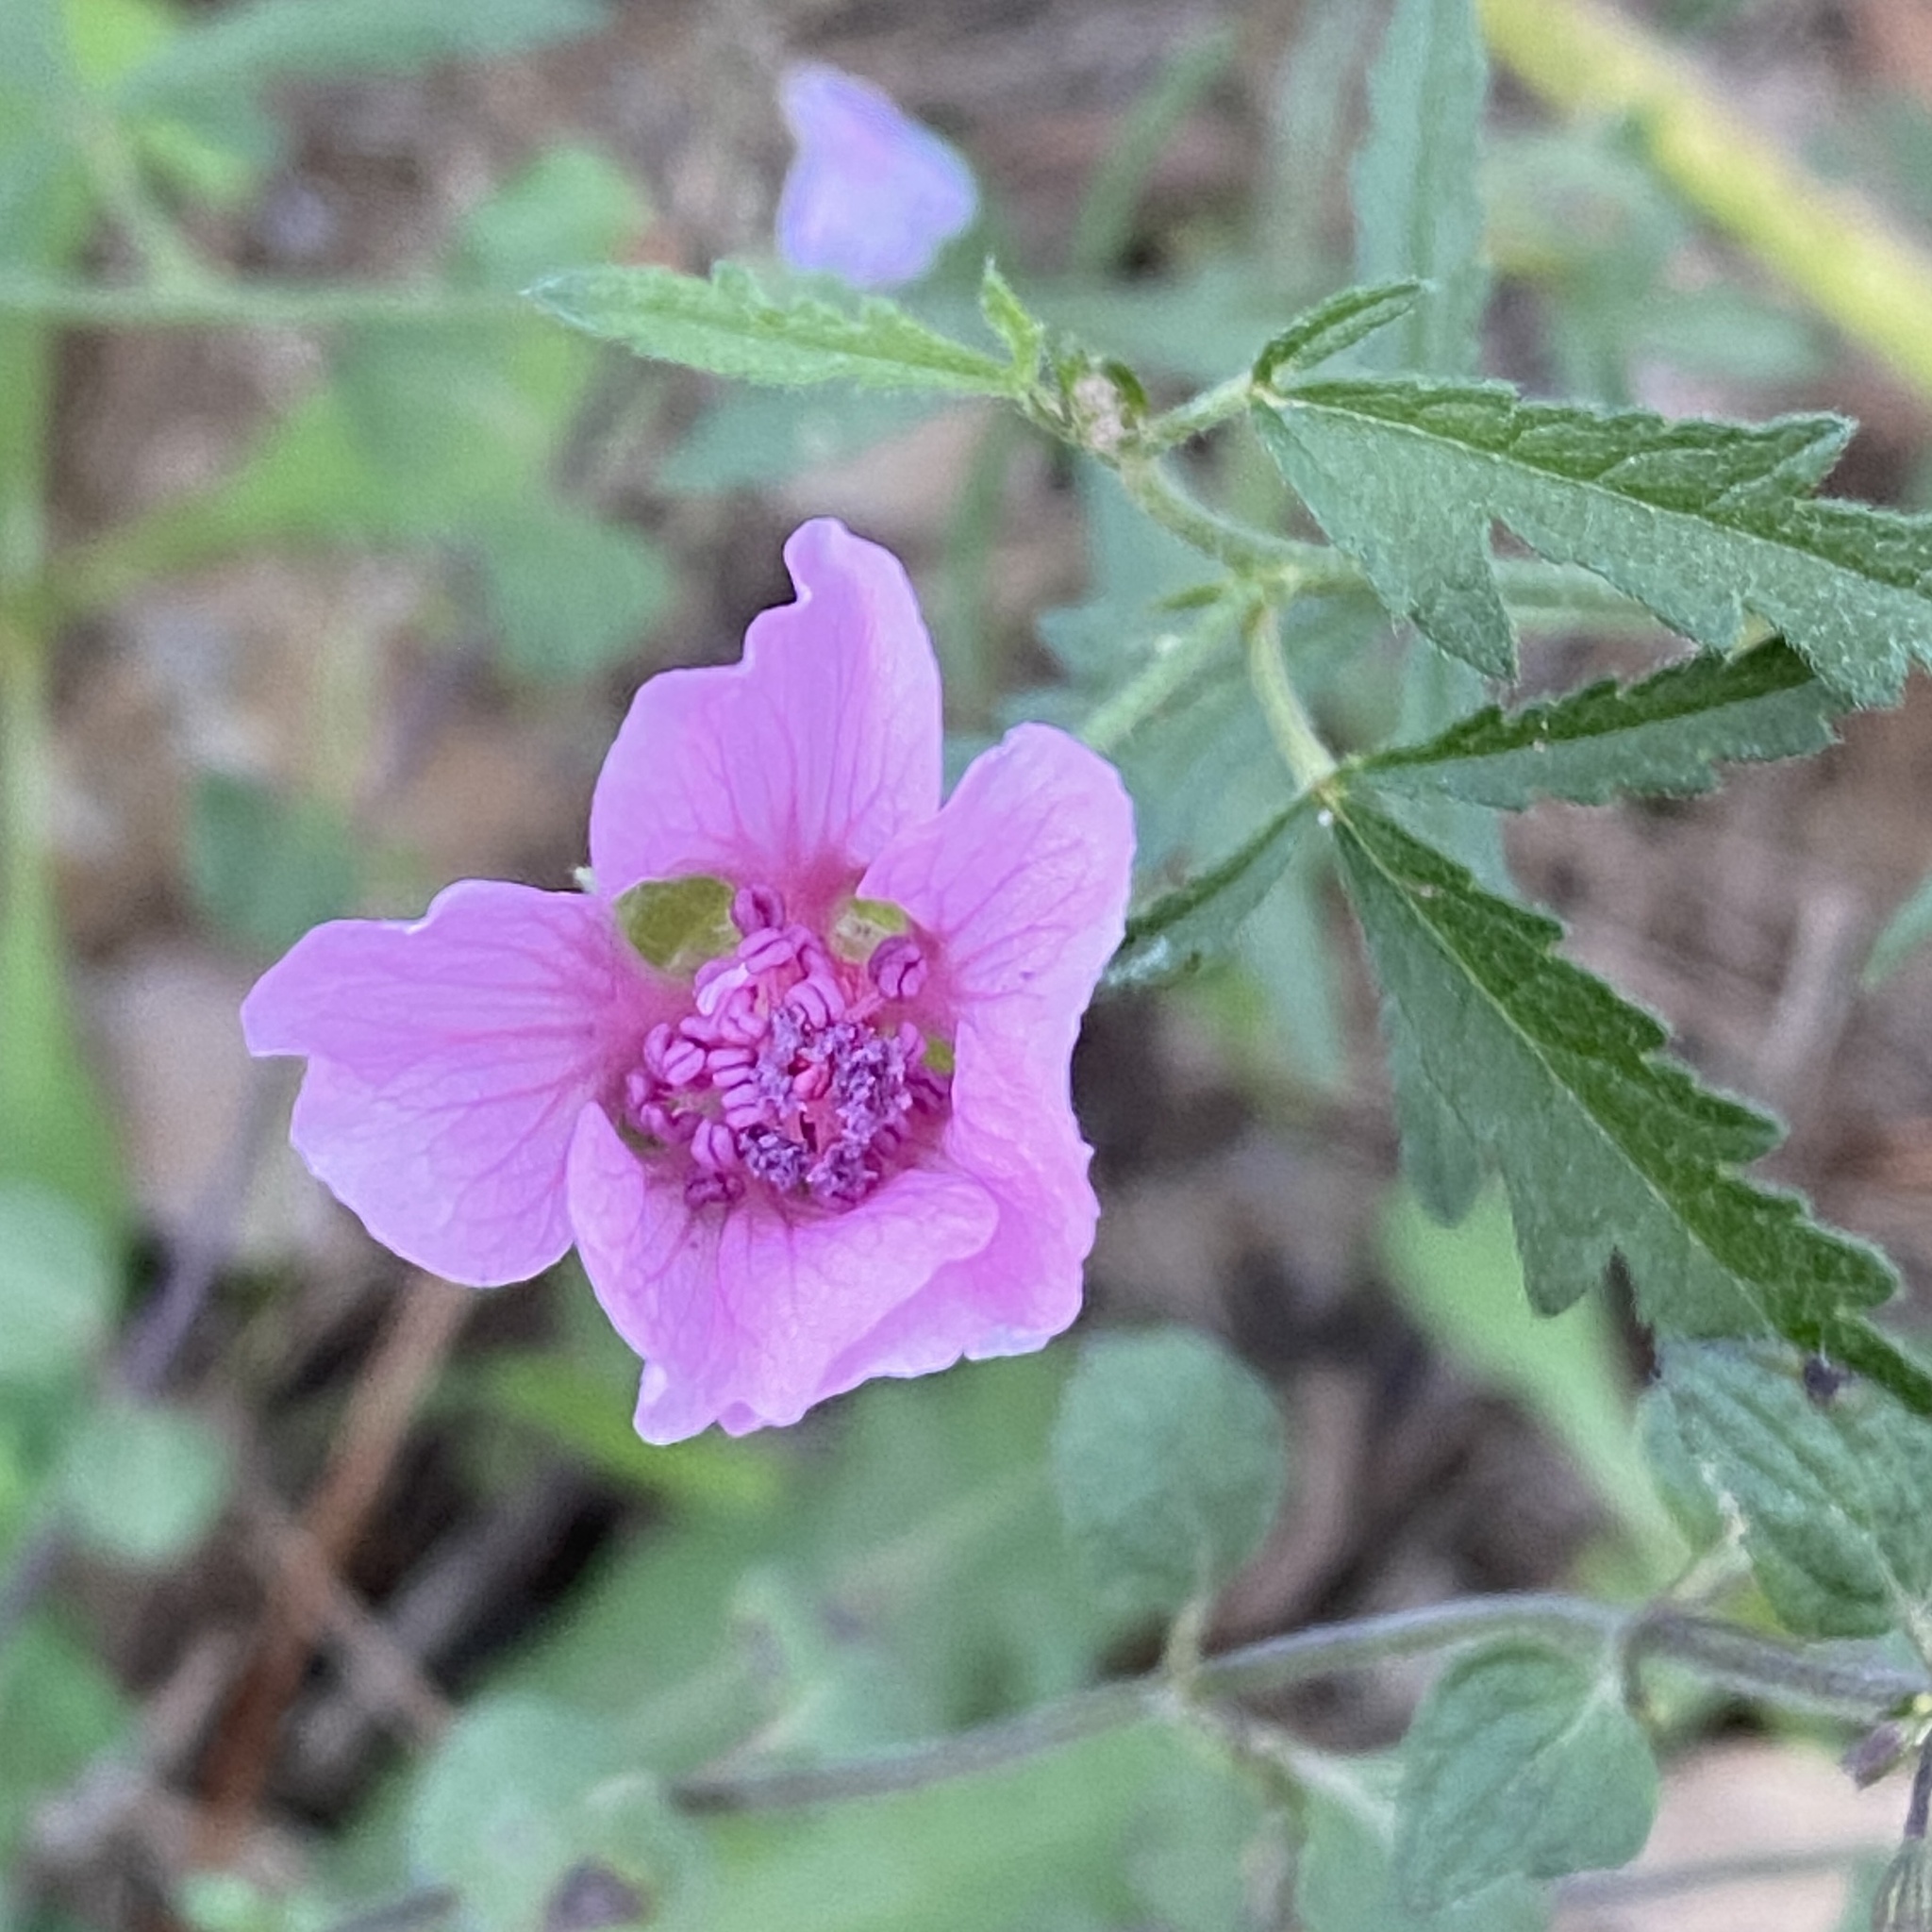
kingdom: Plantae
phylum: Tracheophyta
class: Magnoliopsida
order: Malvales
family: Malvaceae
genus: Althaea
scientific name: Althaea cannabina
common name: Palm-leaf marshmallow
